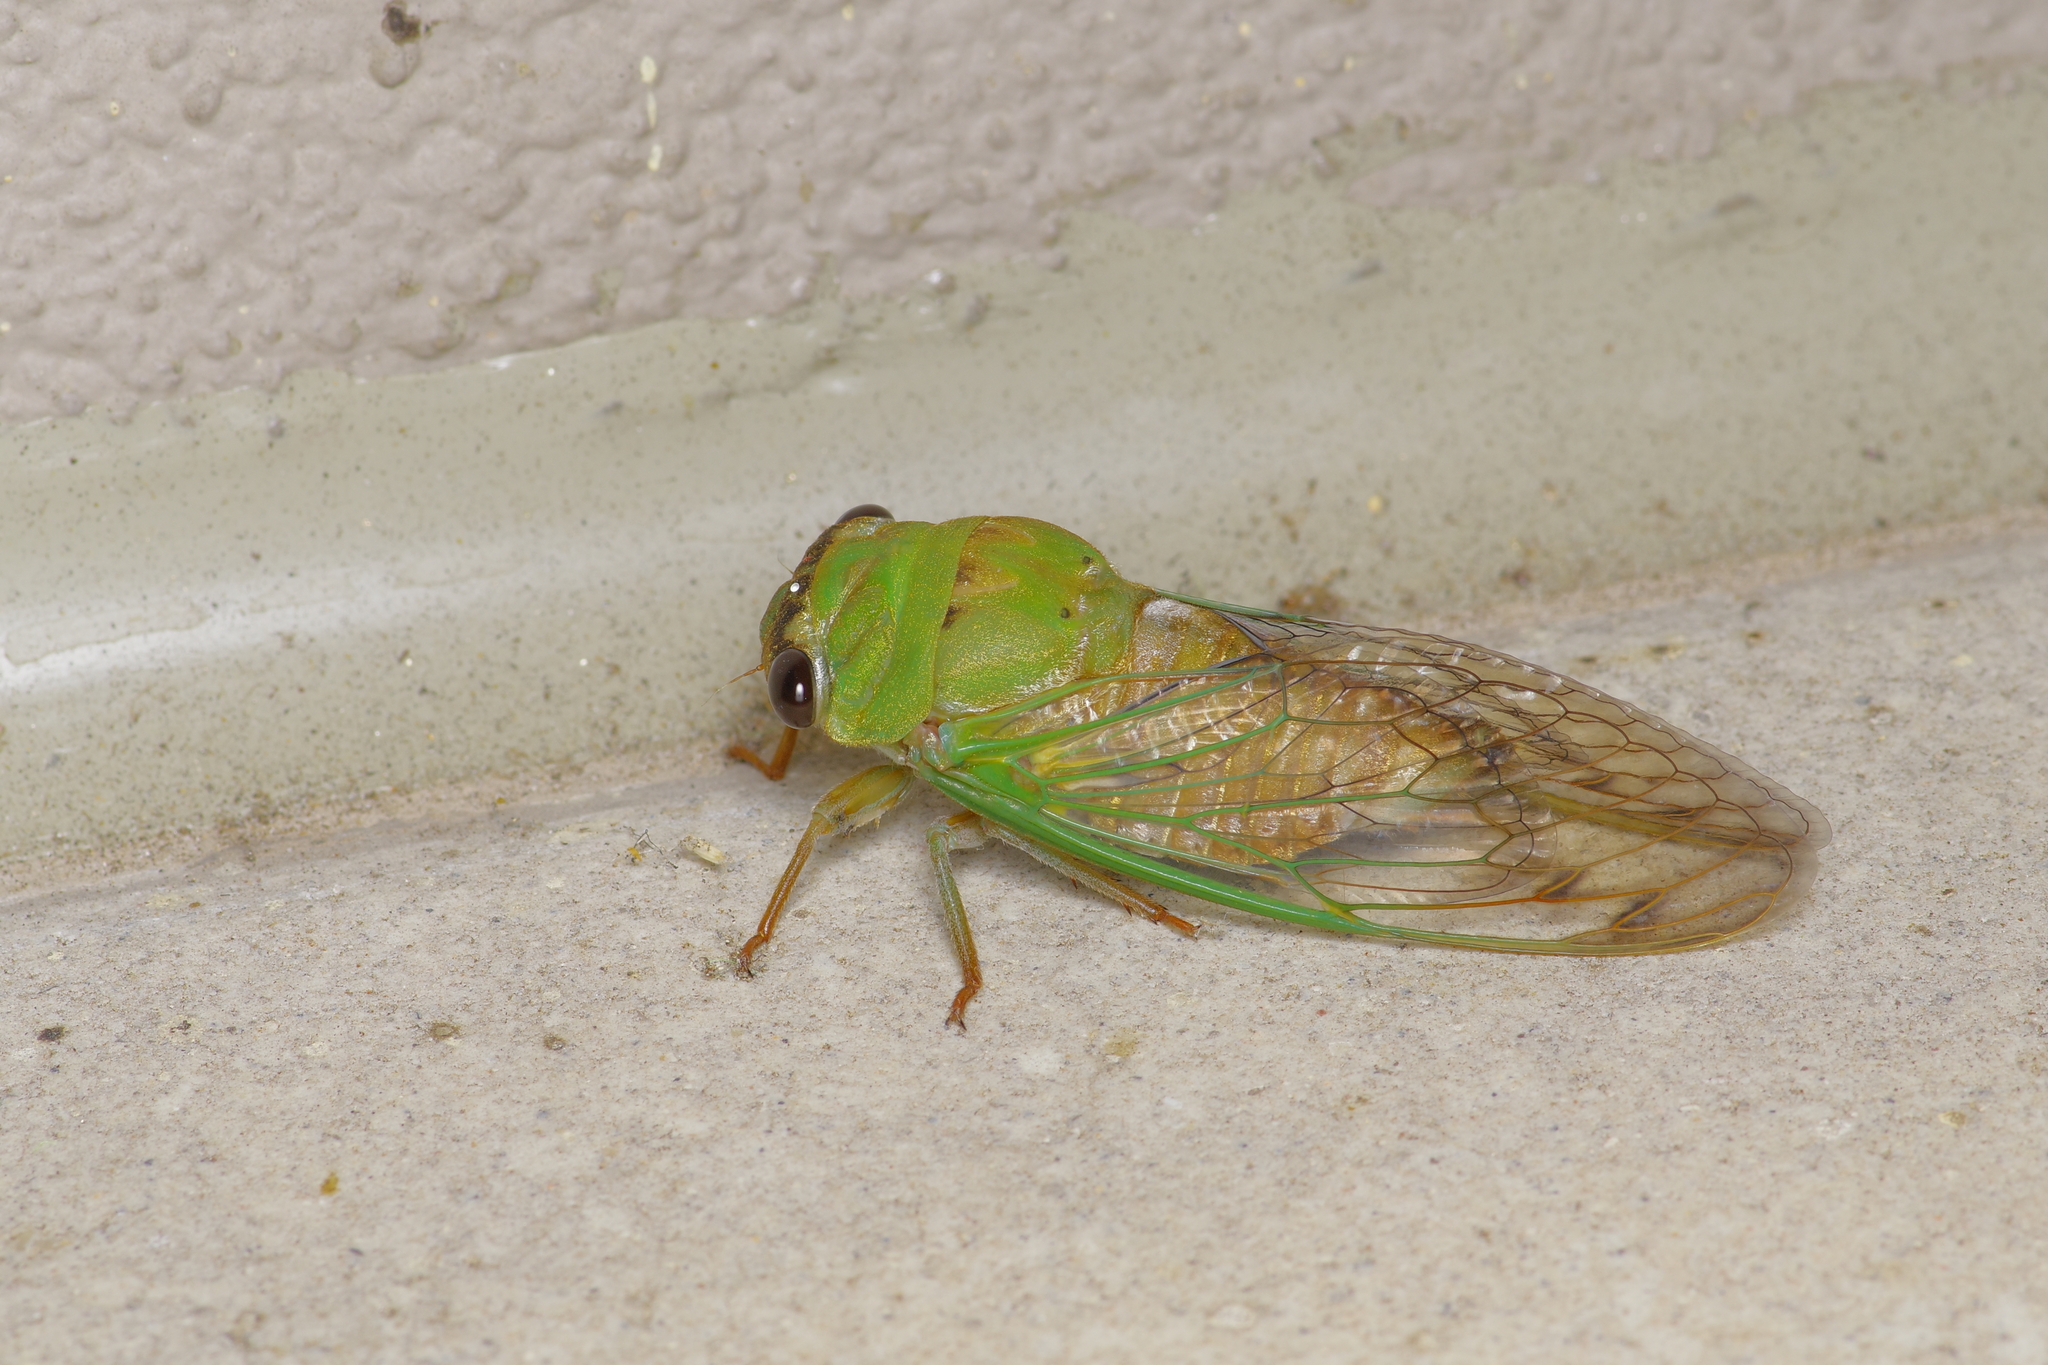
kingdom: Animalia
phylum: Arthropoda
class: Insecta
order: Hemiptera
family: Cicadidae
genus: Neotibicen
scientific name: Neotibicen superbus
